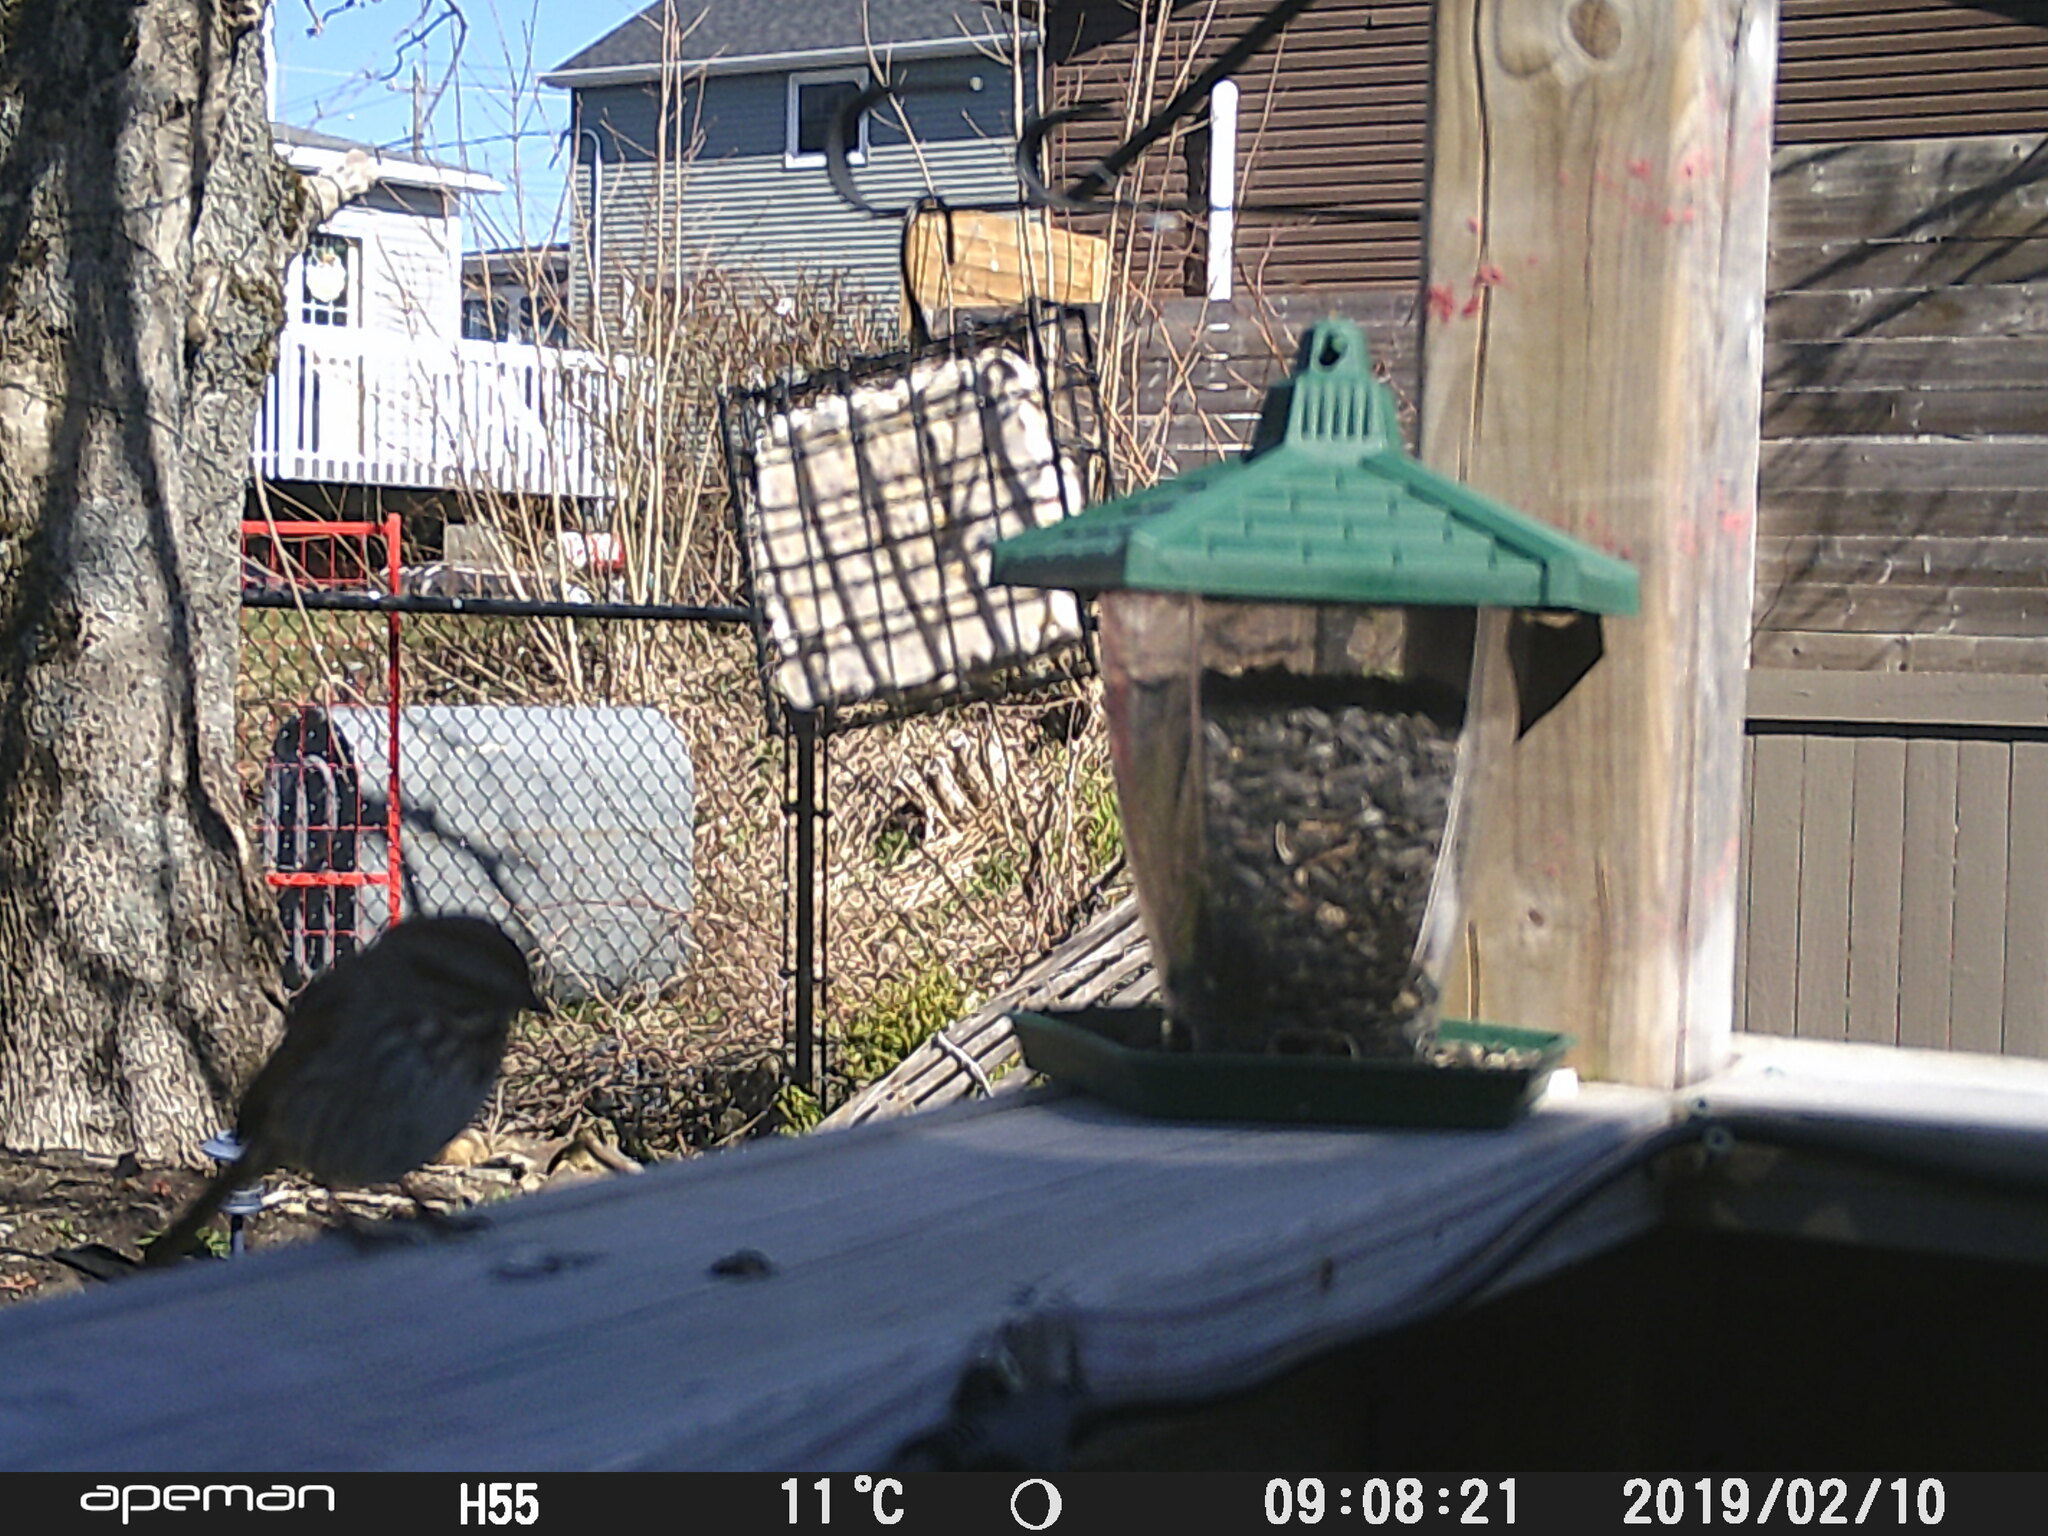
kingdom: Animalia
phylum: Chordata
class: Aves
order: Passeriformes
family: Passerellidae
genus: Melospiza
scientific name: Melospiza melodia
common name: Song sparrow
